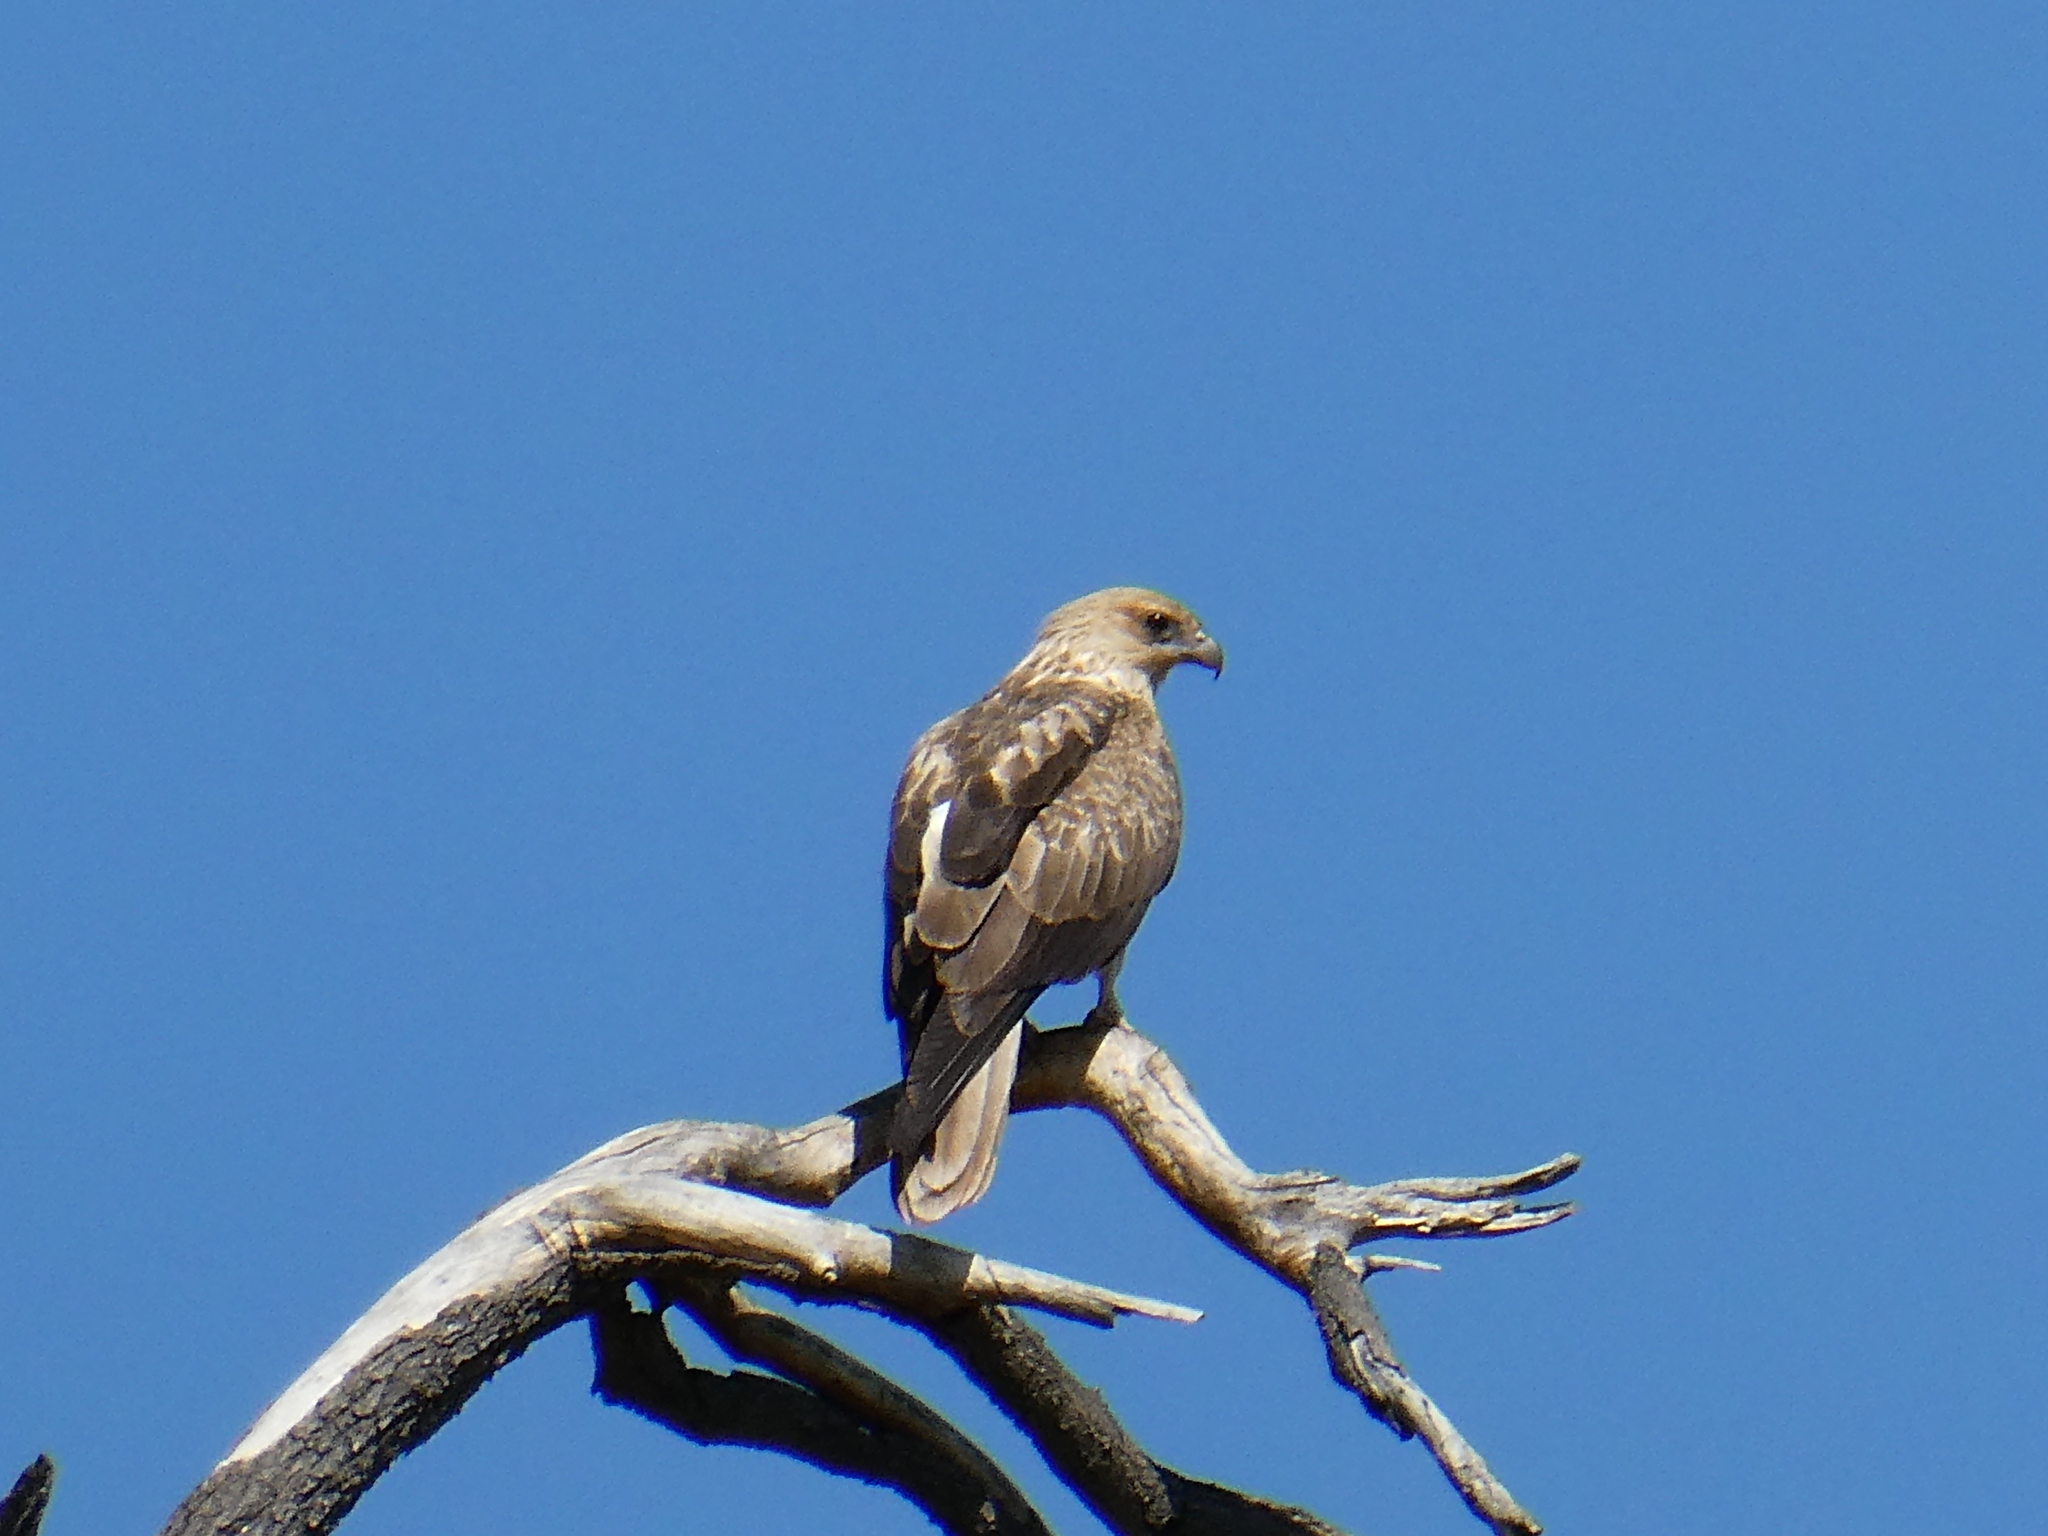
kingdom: Animalia
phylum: Chordata
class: Aves
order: Accipitriformes
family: Accipitridae
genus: Haliastur
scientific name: Haliastur sphenurus
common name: Whistling kite
